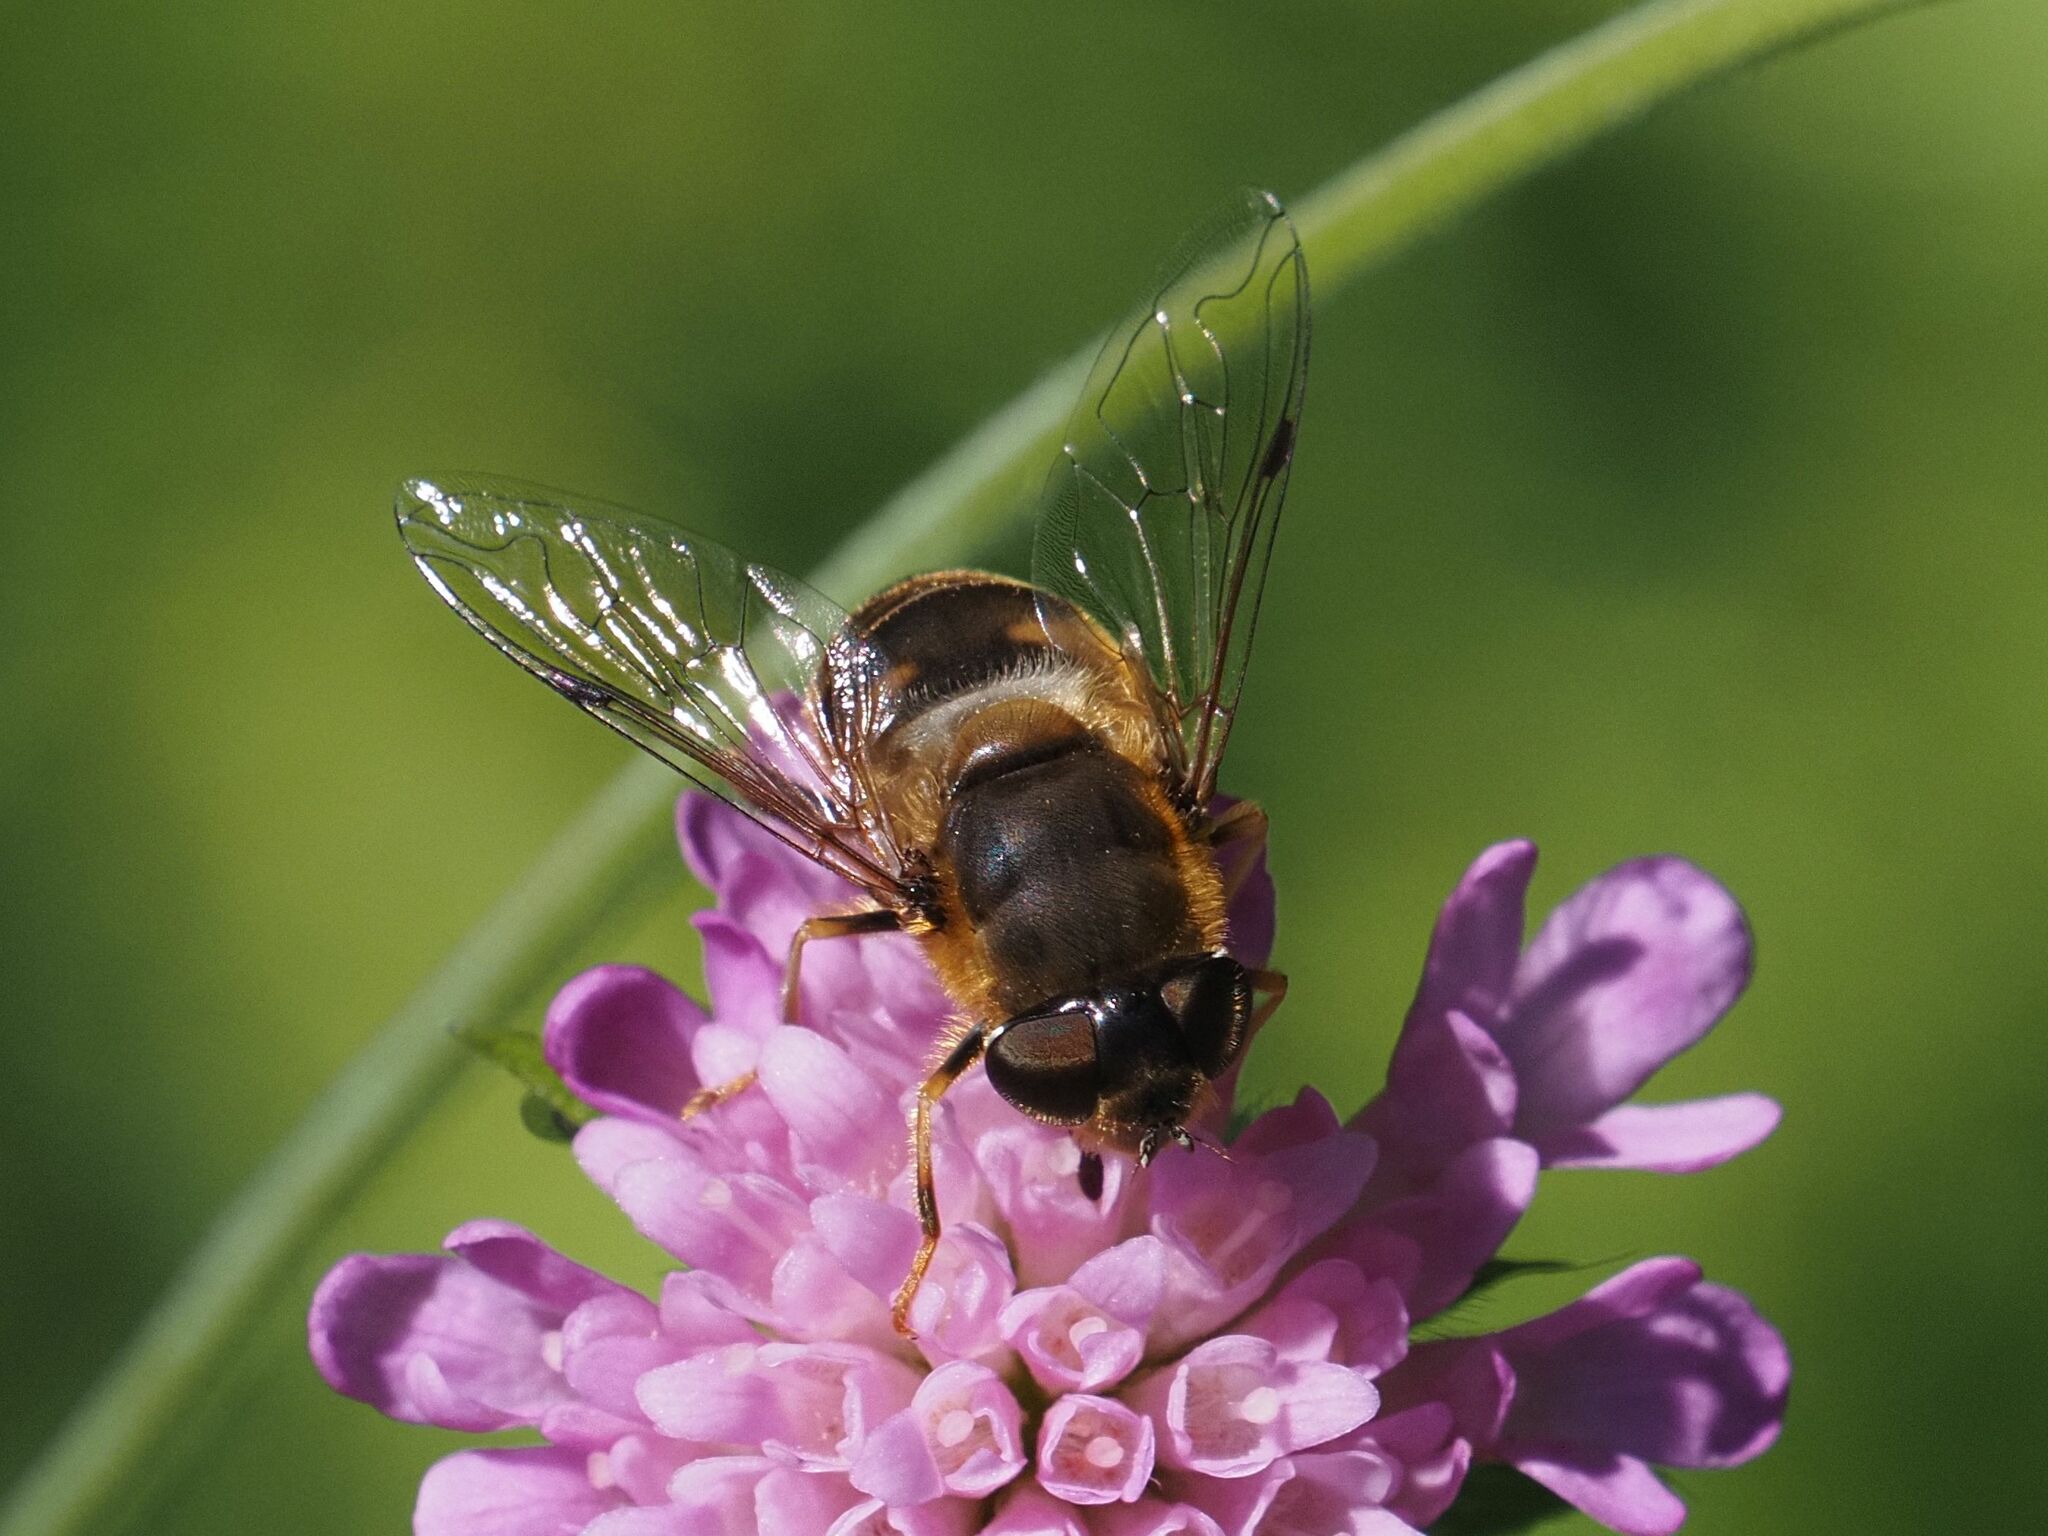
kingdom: Animalia
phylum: Arthropoda
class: Insecta
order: Diptera
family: Syrphidae
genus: Eristalis
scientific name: Eristalis pertinax
